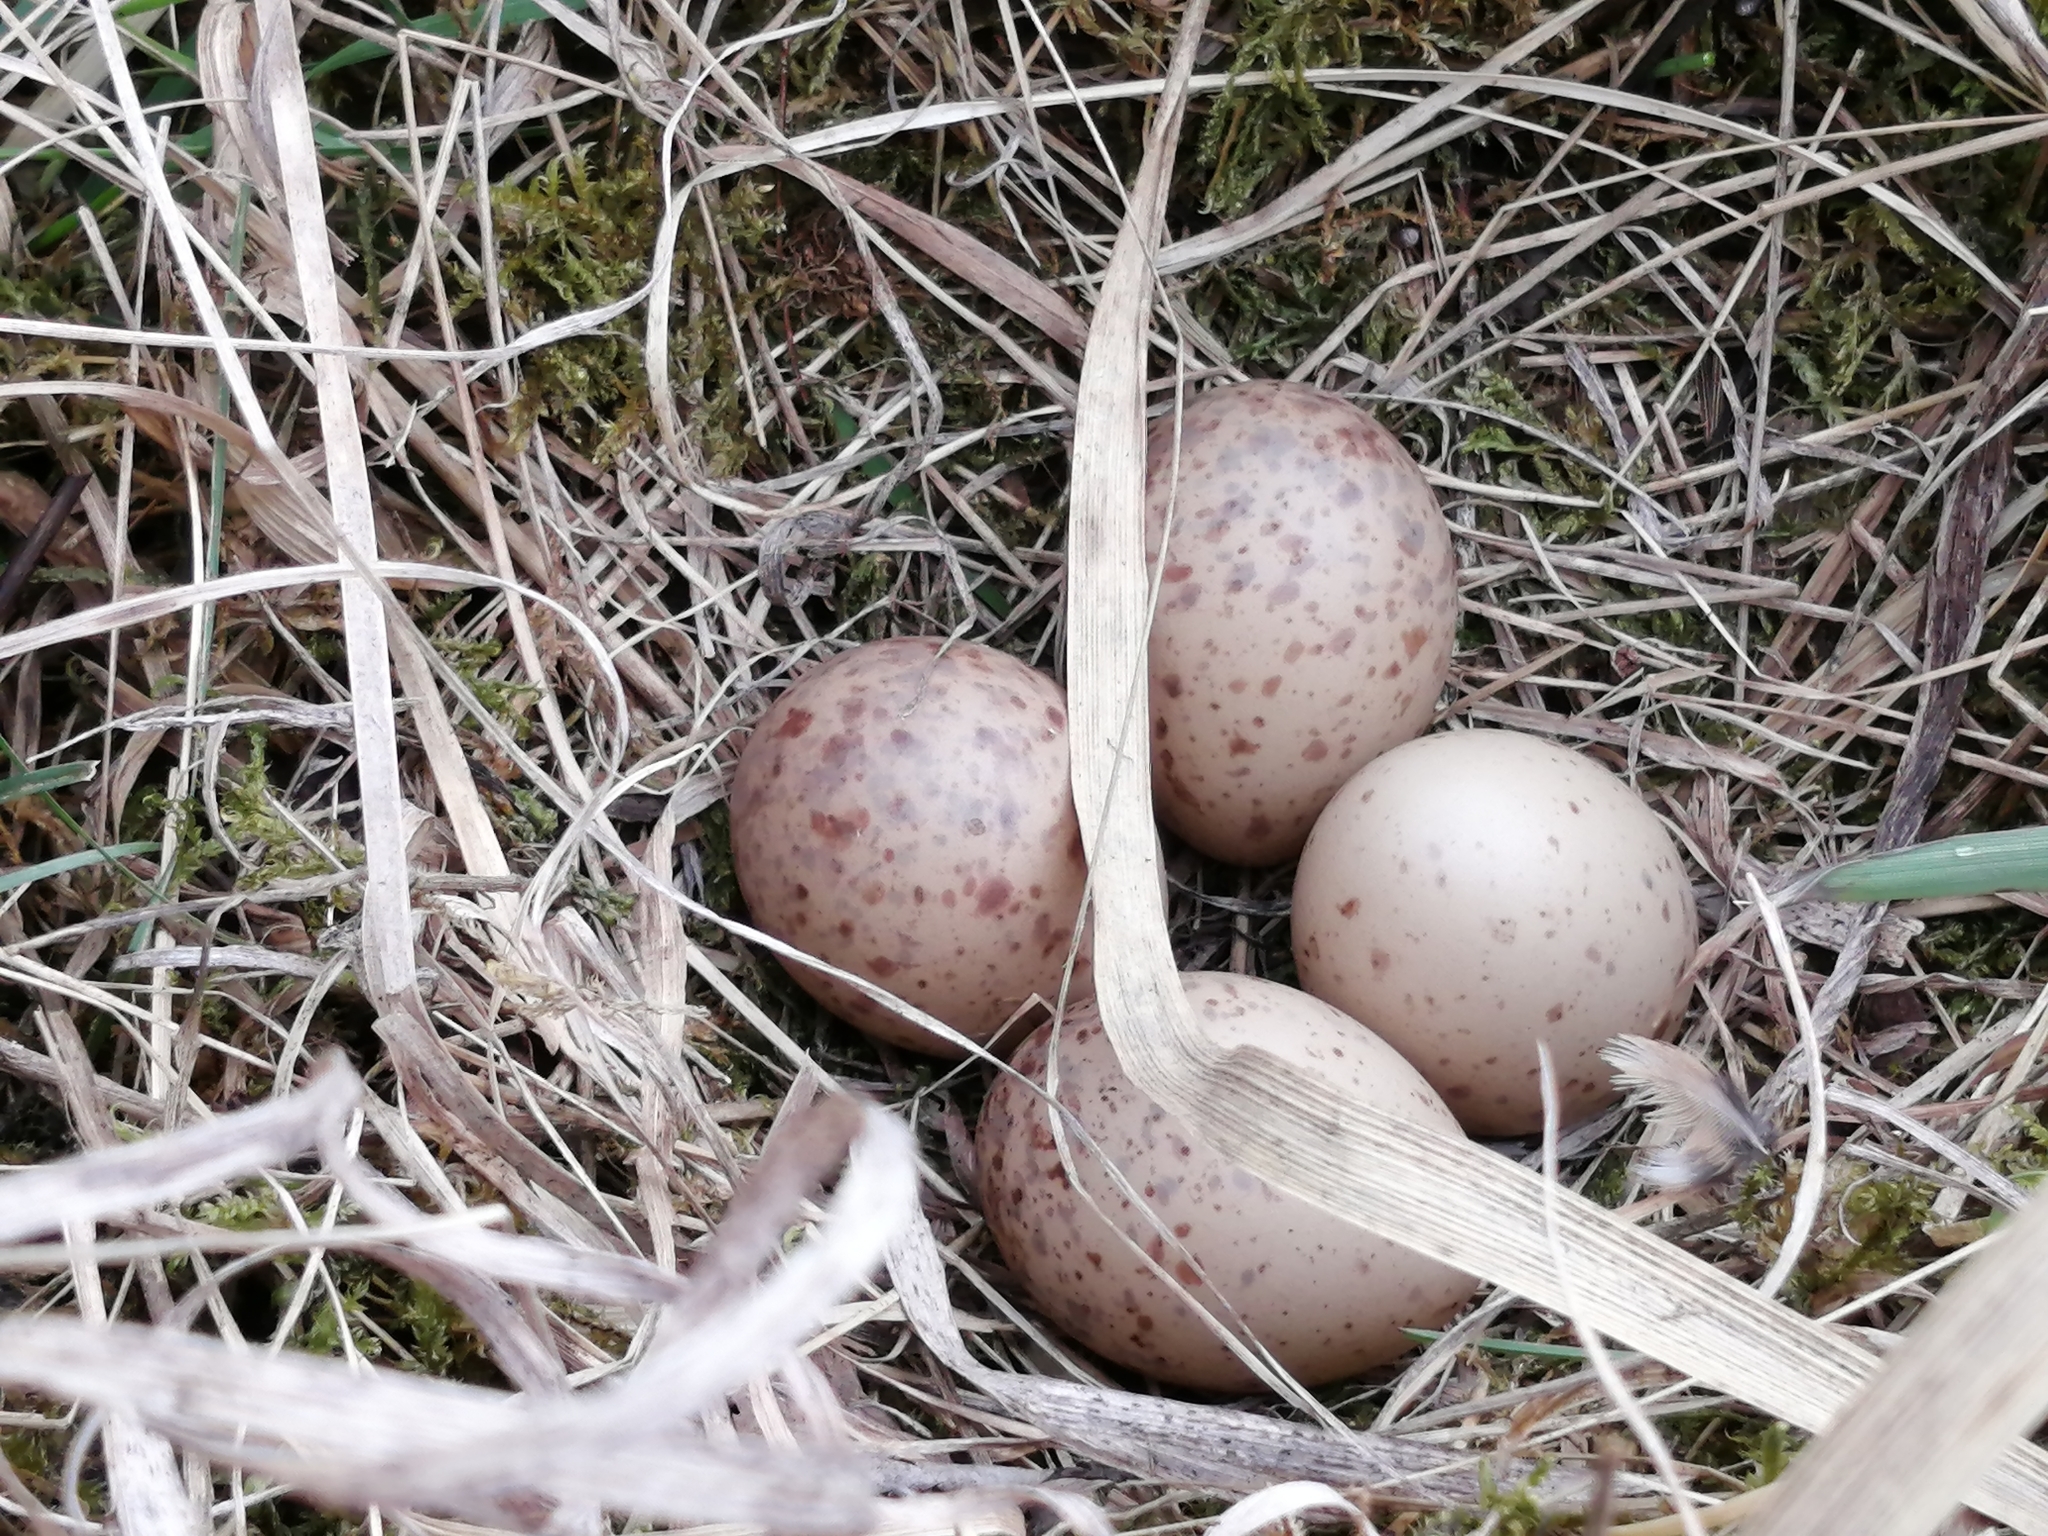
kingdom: Animalia
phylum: Chordata
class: Aves
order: Charadriiformes
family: Scolopacidae
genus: Scolopax
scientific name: Scolopax minor
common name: American woodcock
